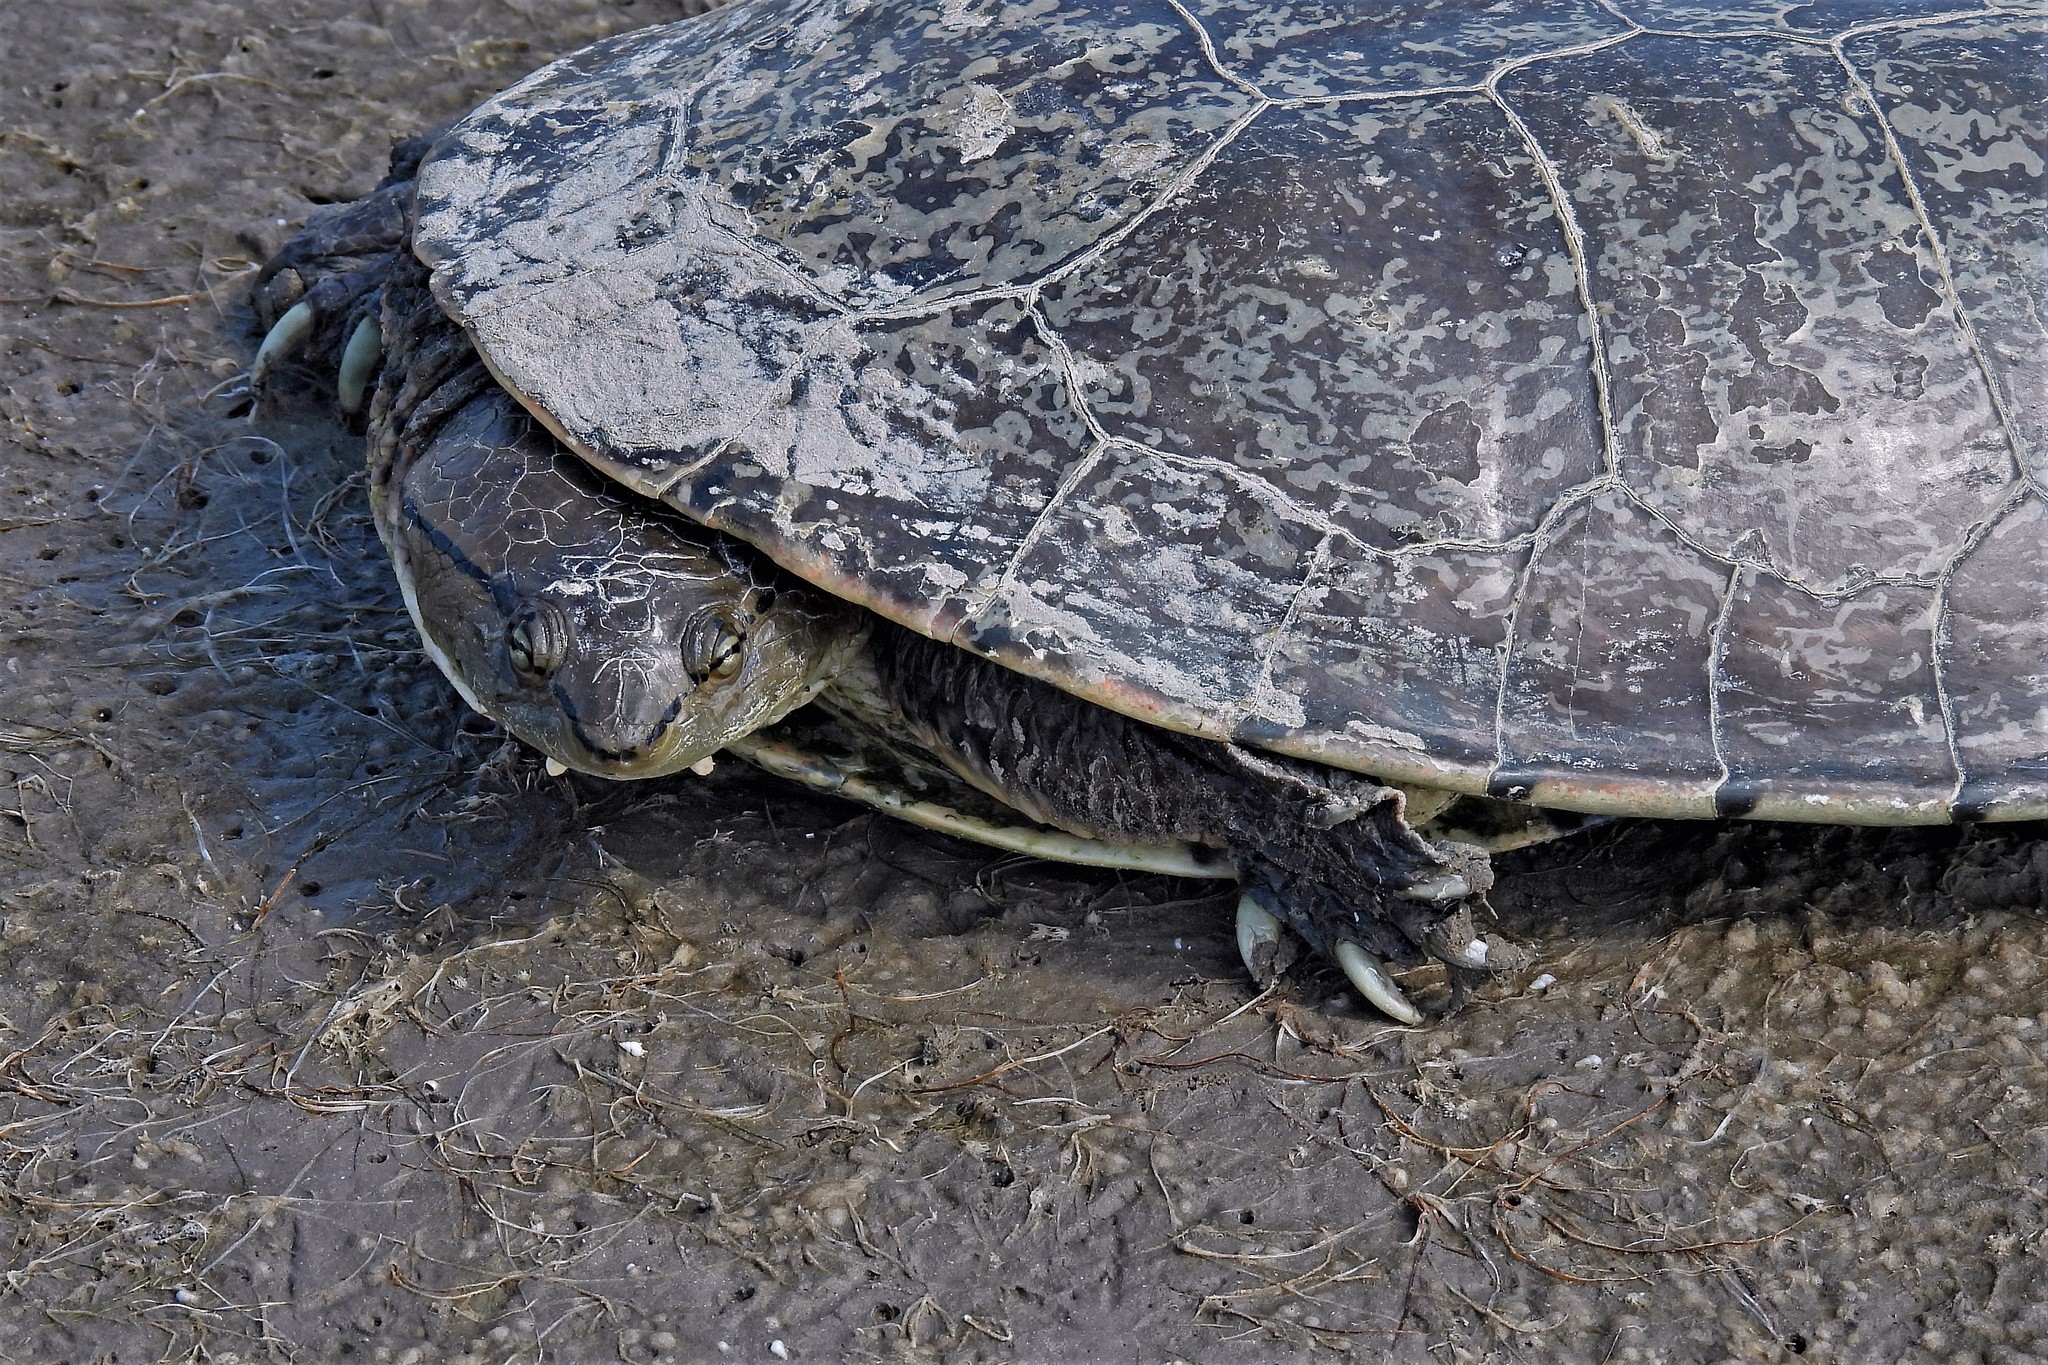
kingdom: Animalia
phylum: Chordata
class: Testudines
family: Chelidae
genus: Phrynops
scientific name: Phrynops hilarii
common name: Side-necked turtle of saint hillaire
